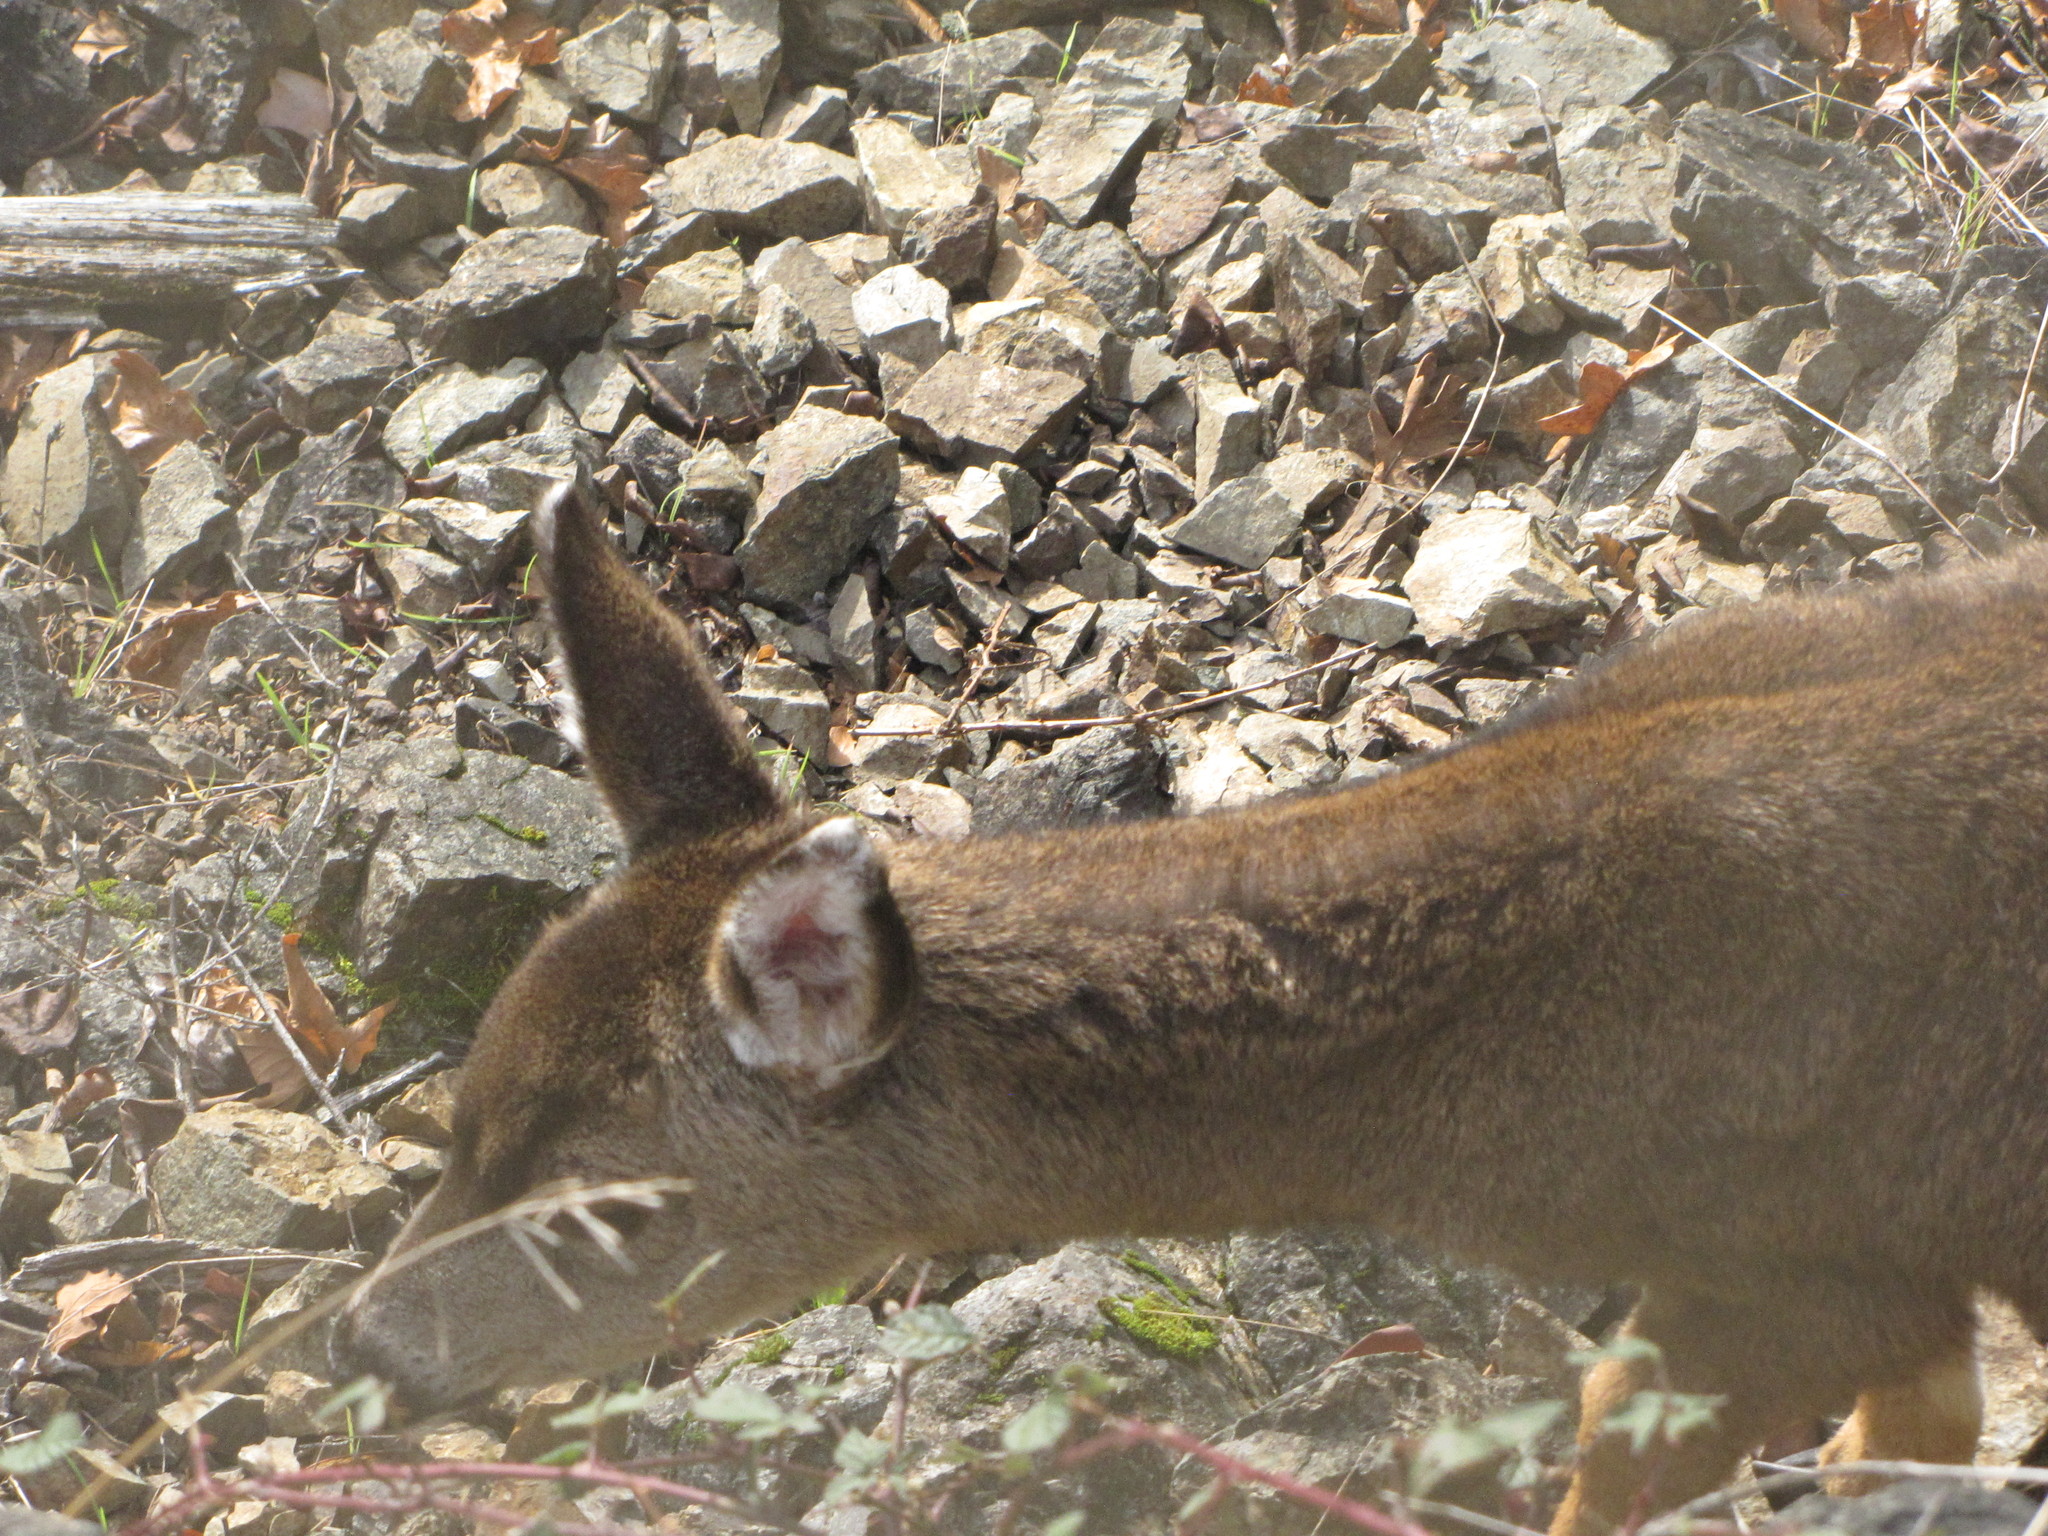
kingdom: Animalia
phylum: Chordata
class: Mammalia
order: Artiodactyla
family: Cervidae
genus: Odocoileus
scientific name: Odocoileus hemionus
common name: Mule deer
